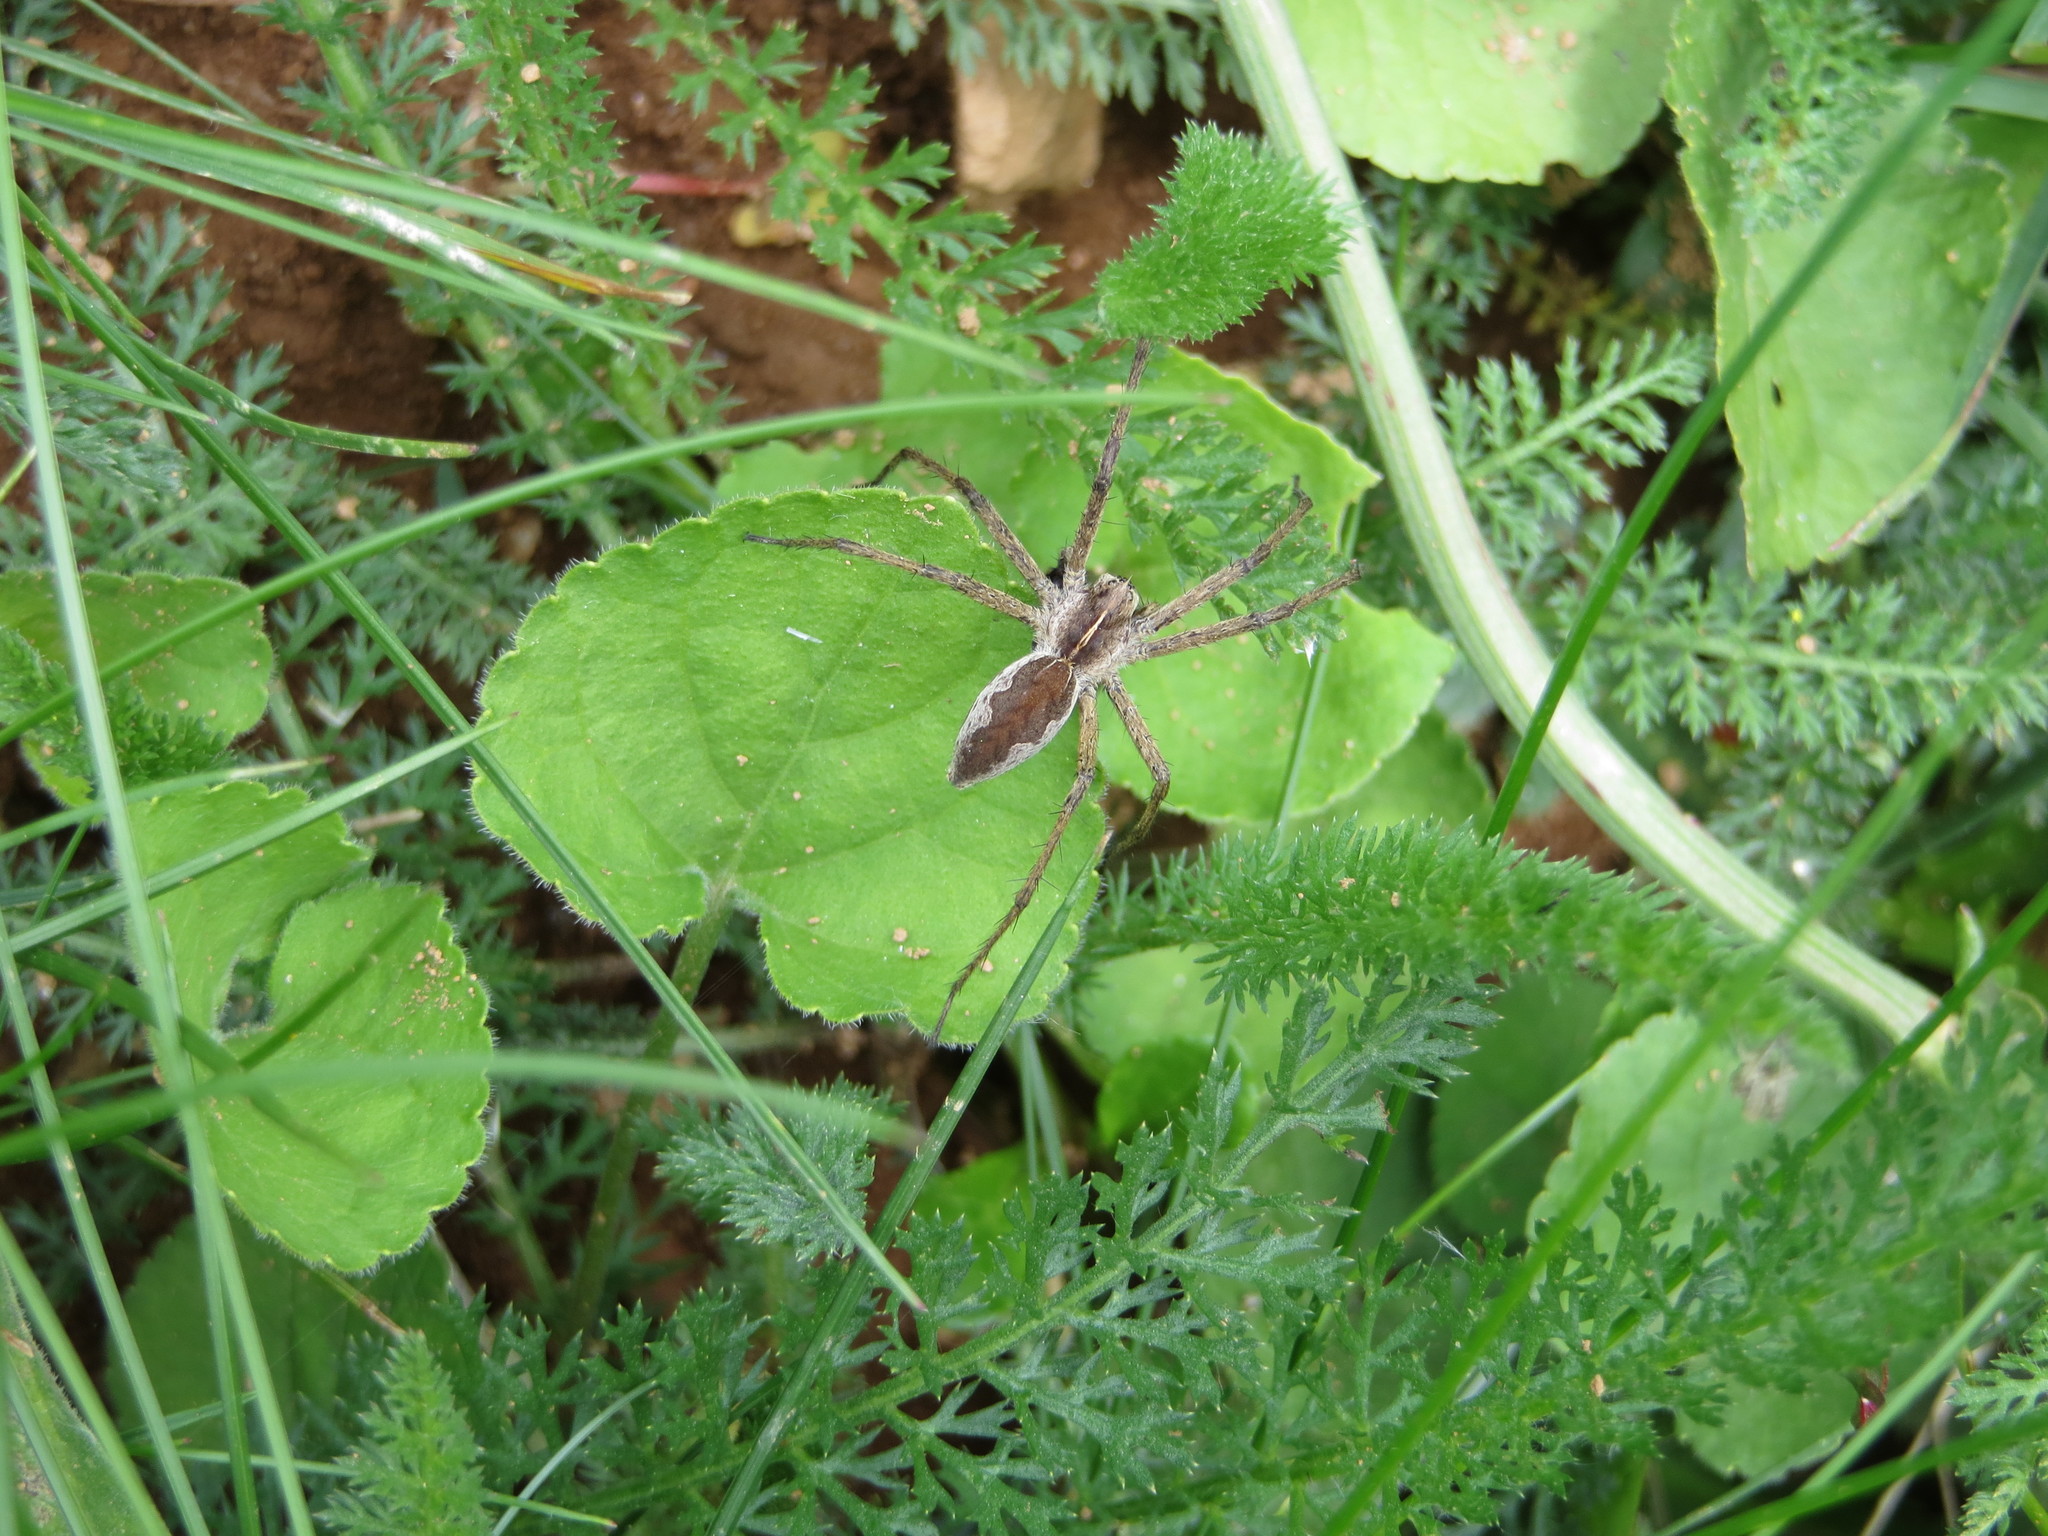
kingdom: Animalia
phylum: Arthropoda
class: Arachnida
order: Araneae
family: Pisauridae
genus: Pisaura
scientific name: Pisaura mirabilis
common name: Tent spider
